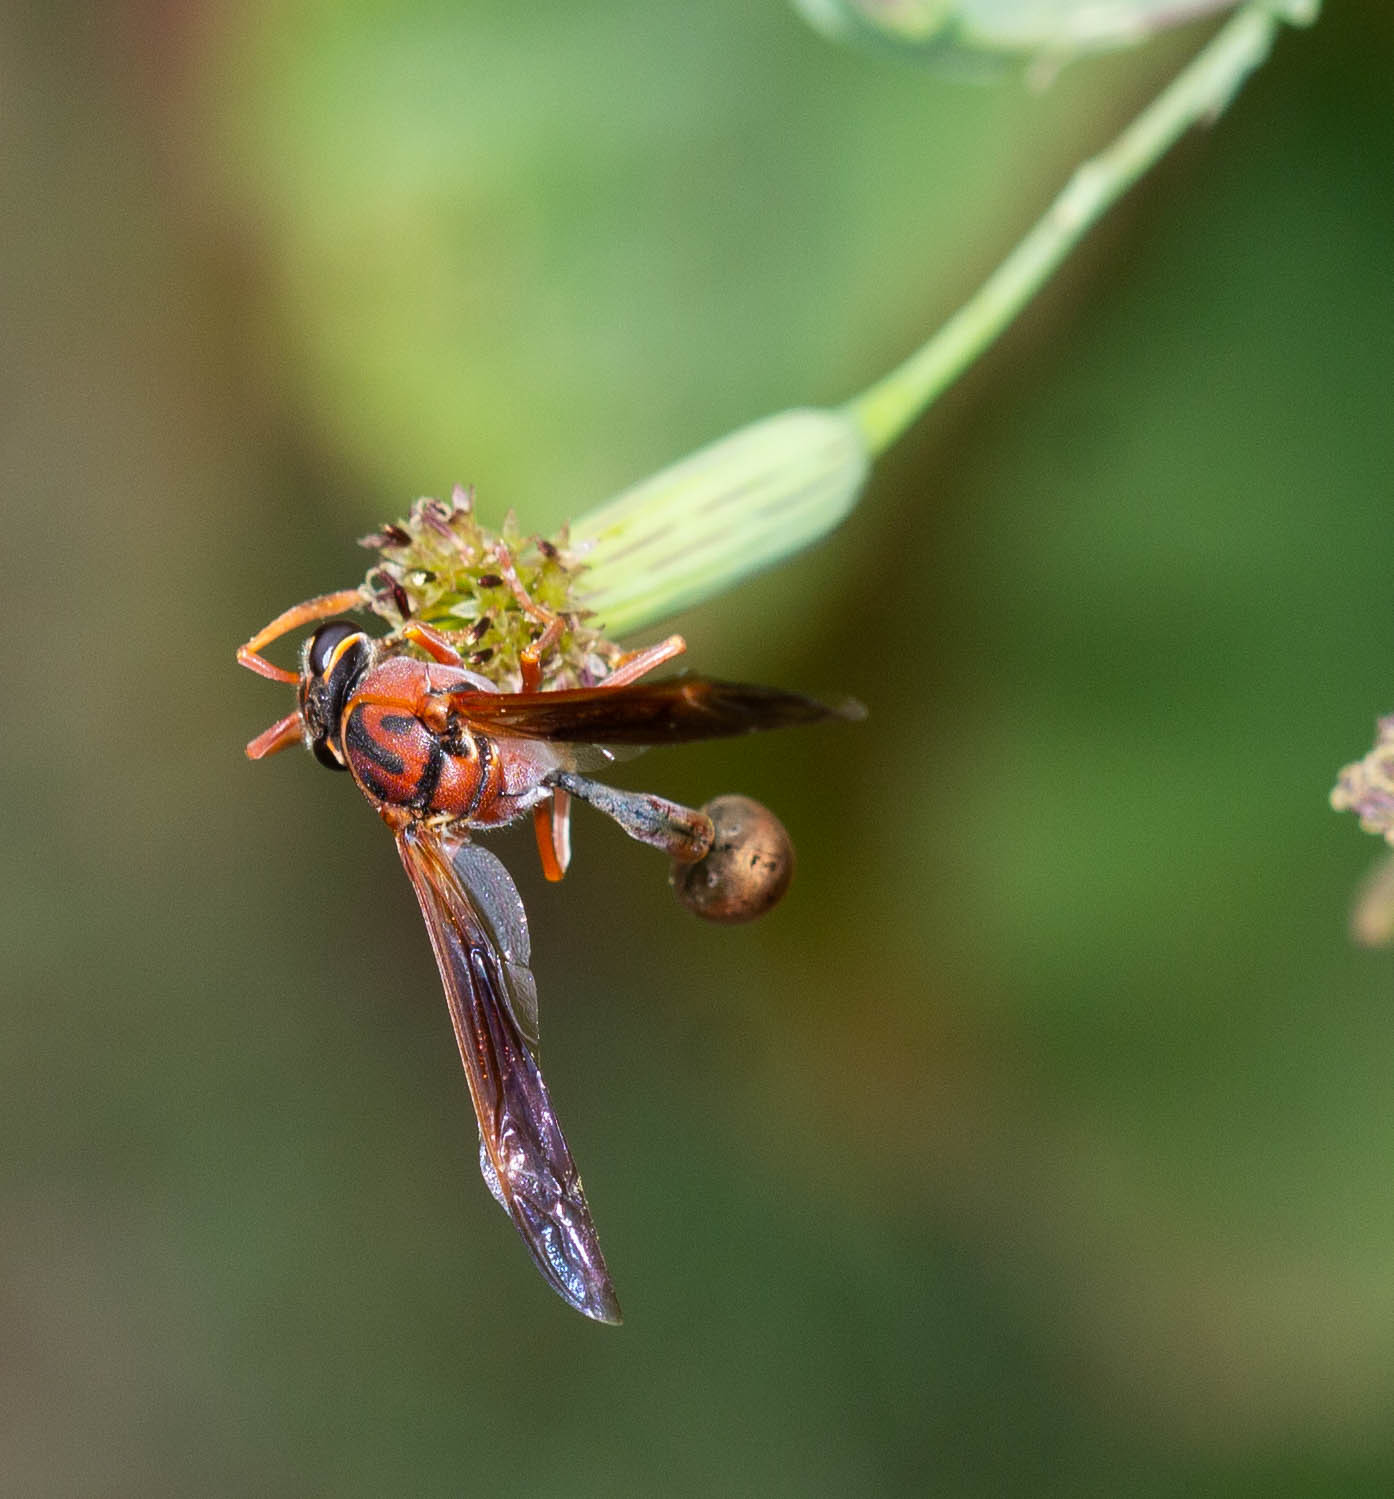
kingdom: Animalia
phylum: Arthropoda
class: Insecta
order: Hymenoptera
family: Eumenidae
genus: Zeta
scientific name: Zeta argillaceum
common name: Potter wasp
